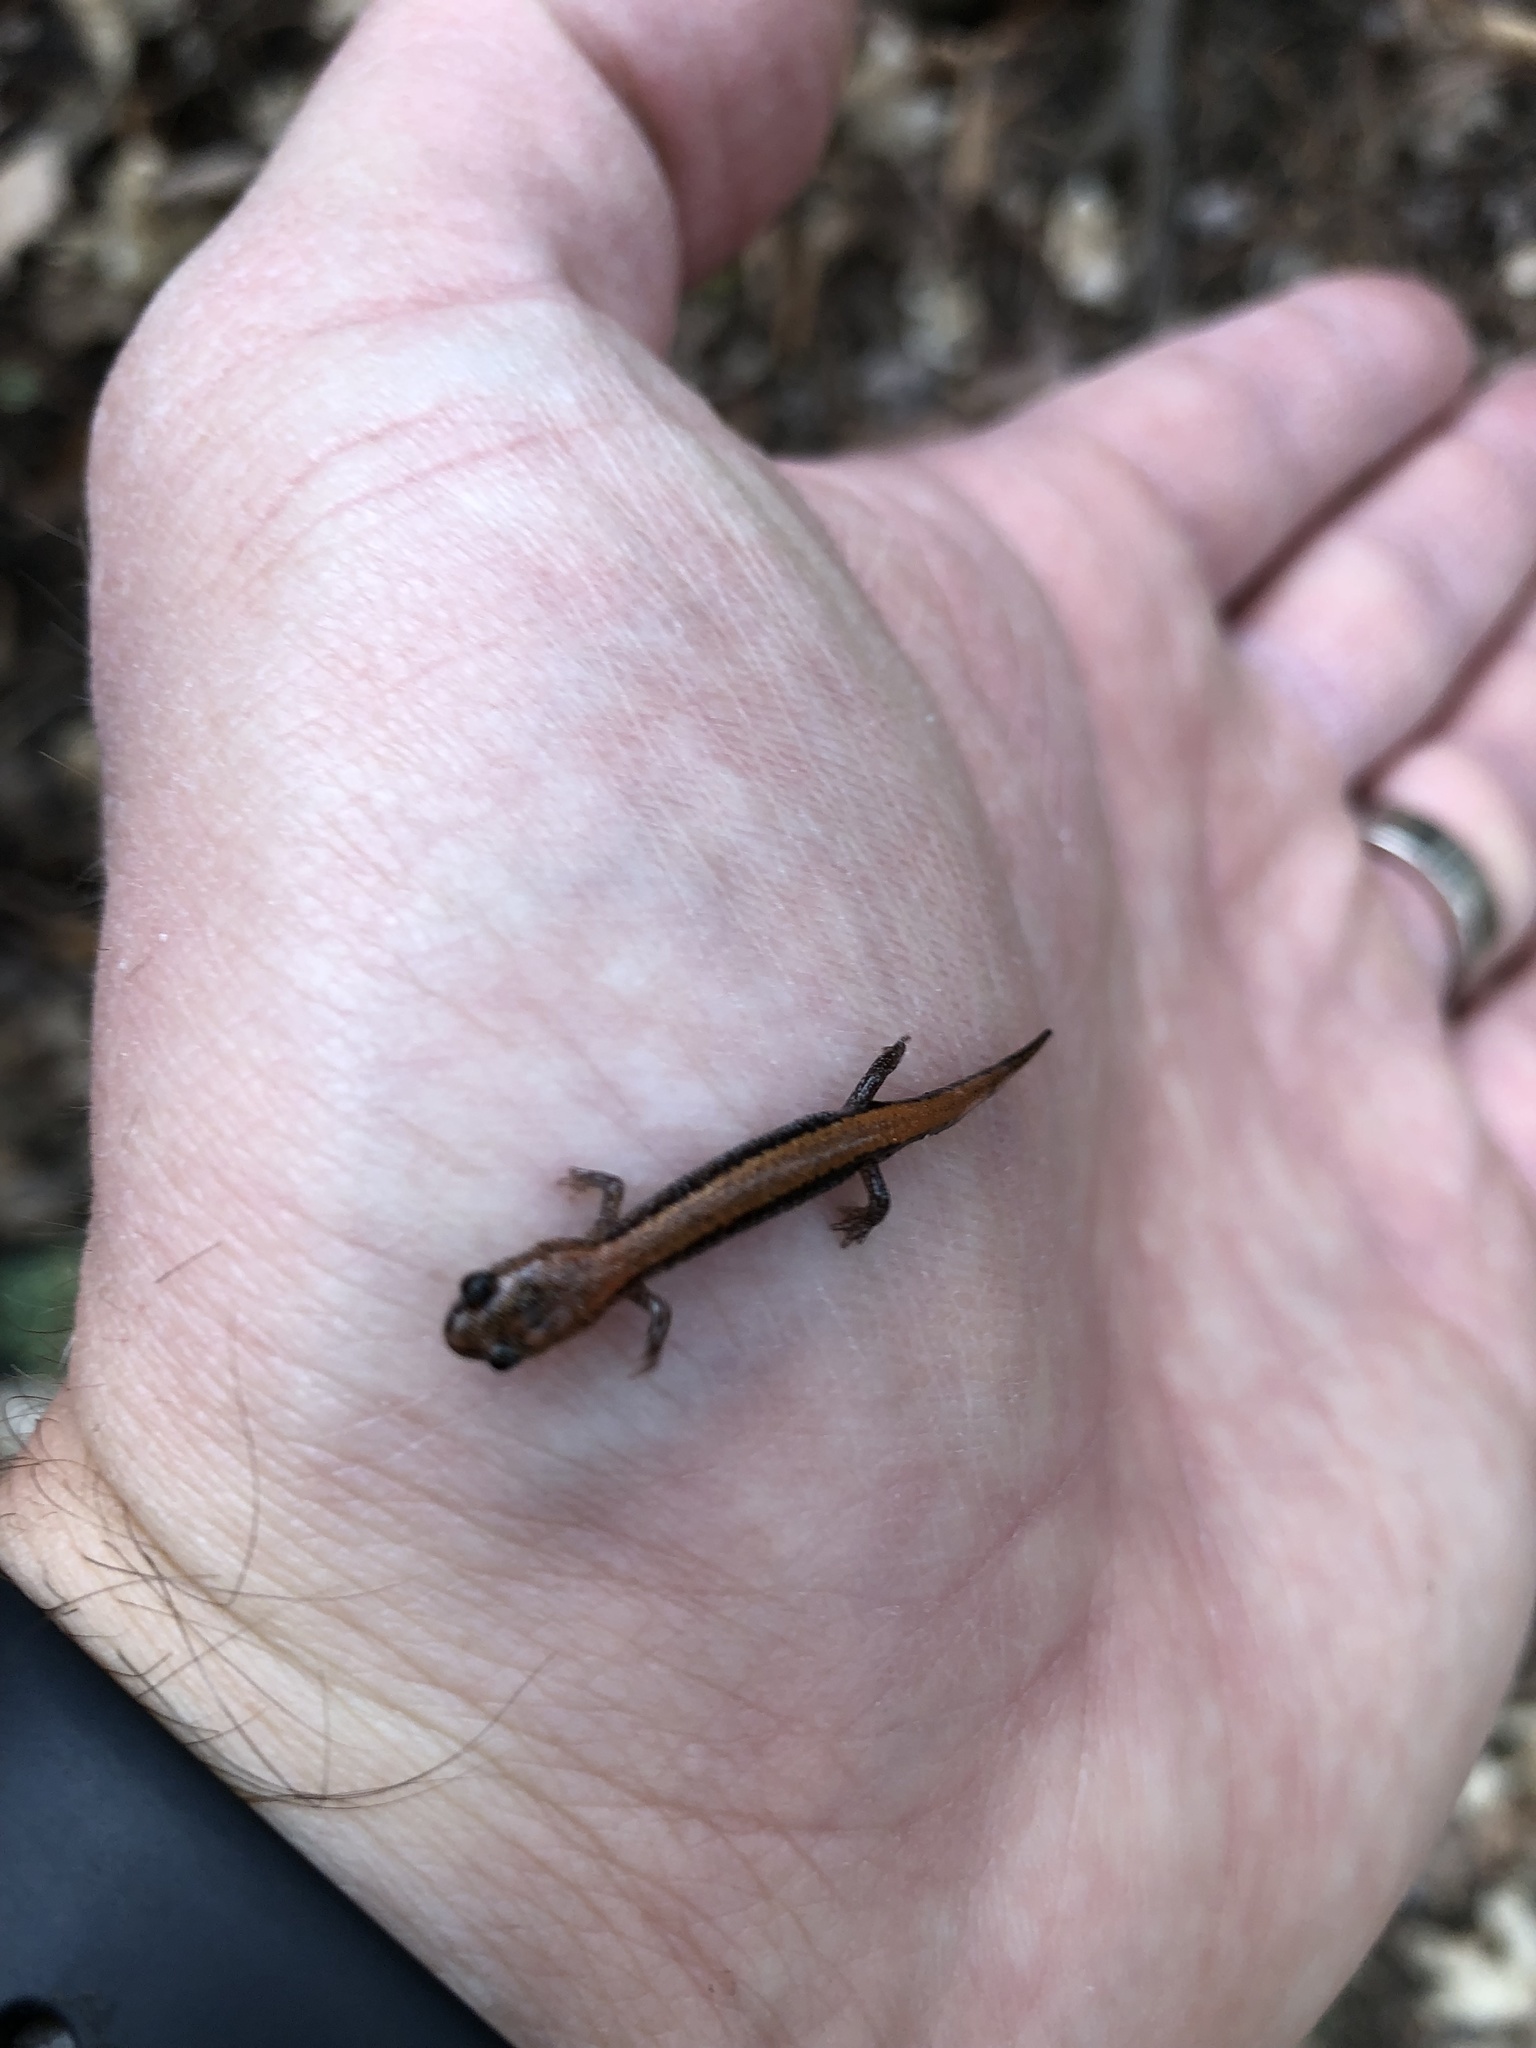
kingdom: Animalia
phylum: Chordata
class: Amphibia
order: Caudata
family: Plethodontidae
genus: Plethodon
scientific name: Plethodon cinereus
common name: Redback salamander
